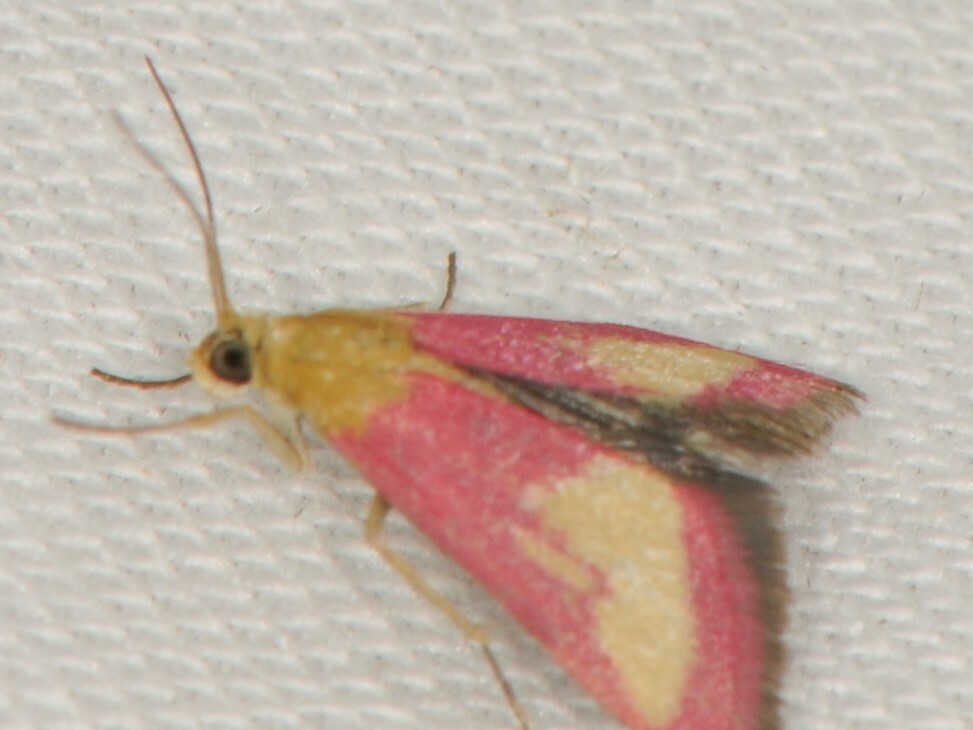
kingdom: Animalia
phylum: Arthropoda
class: Insecta
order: Lepidoptera
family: Crambidae
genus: Mojavia
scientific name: Mojavia achemonalis
